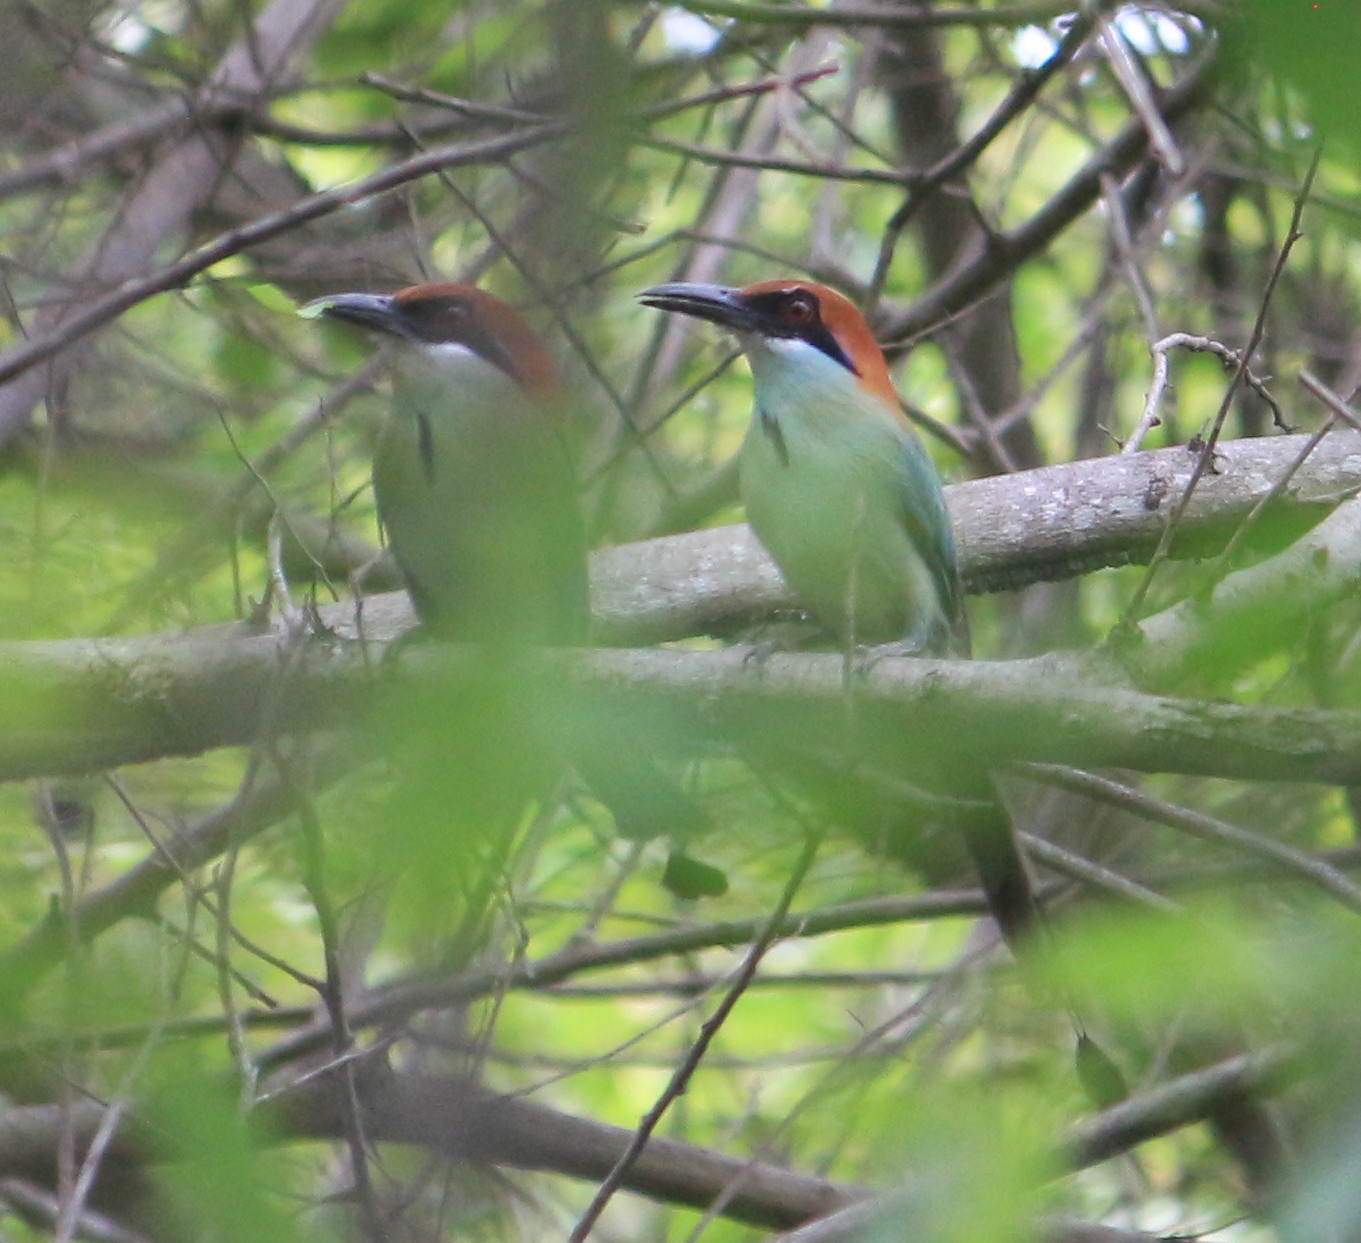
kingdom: Animalia
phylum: Chordata
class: Aves
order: Coraciiformes
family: Momotidae
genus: Momotus
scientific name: Momotus mexicanus
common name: Russet-crowned motmot
